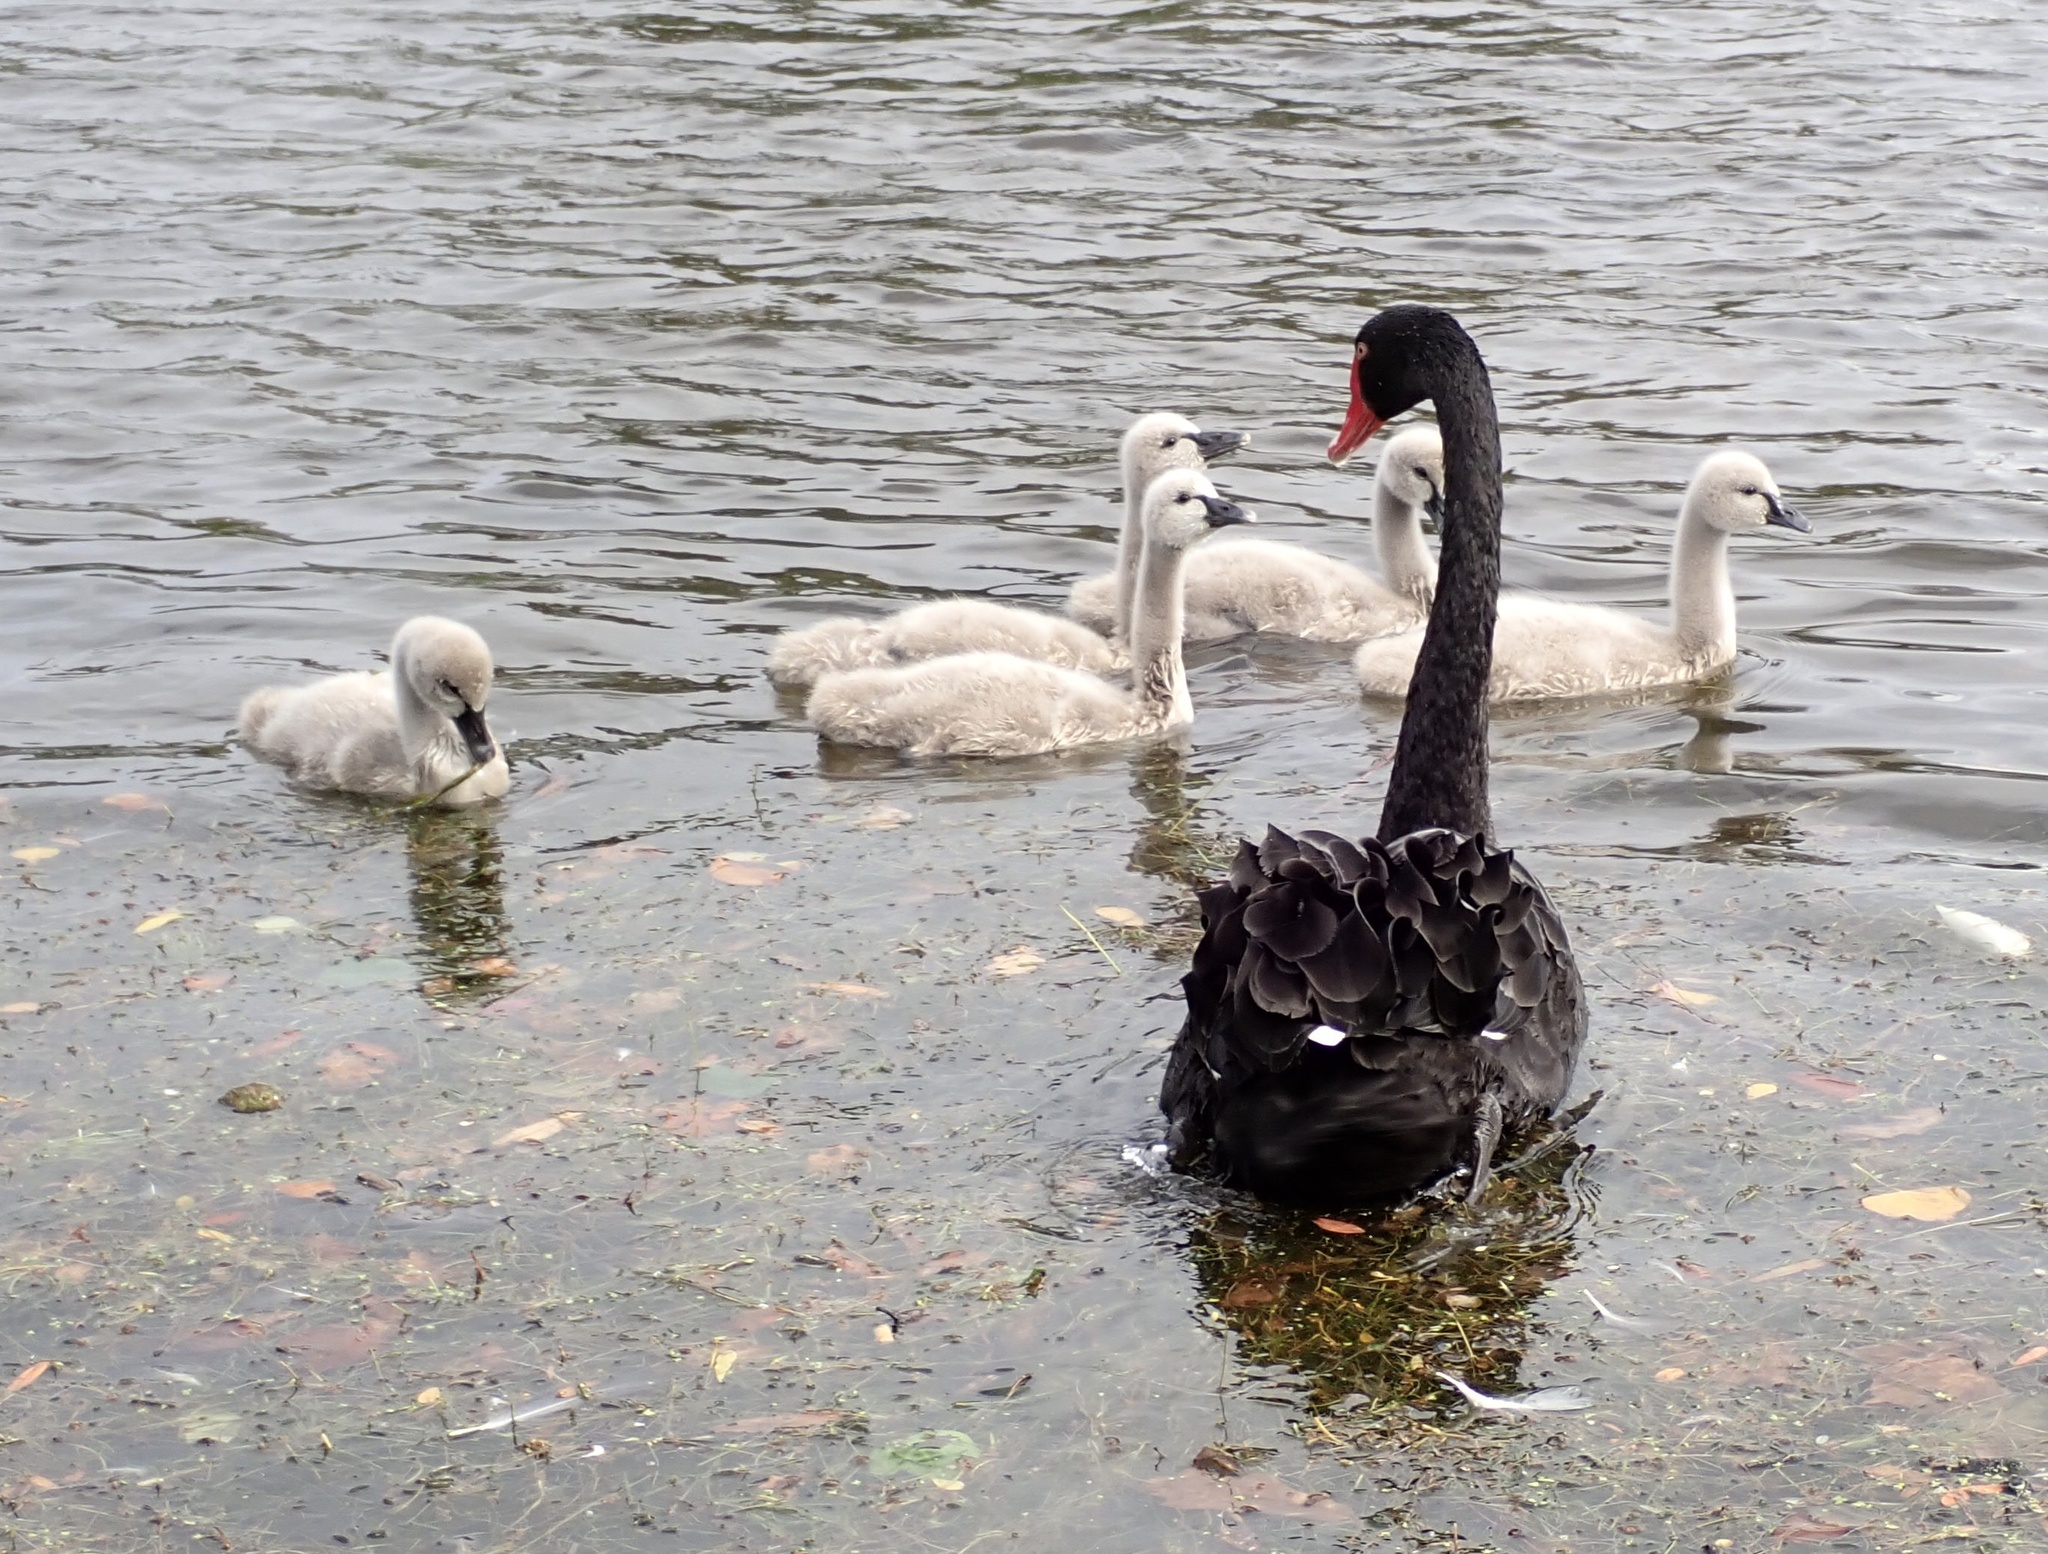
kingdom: Animalia
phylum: Chordata
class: Aves
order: Anseriformes
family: Anatidae
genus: Cygnus
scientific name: Cygnus atratus
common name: Black swan
